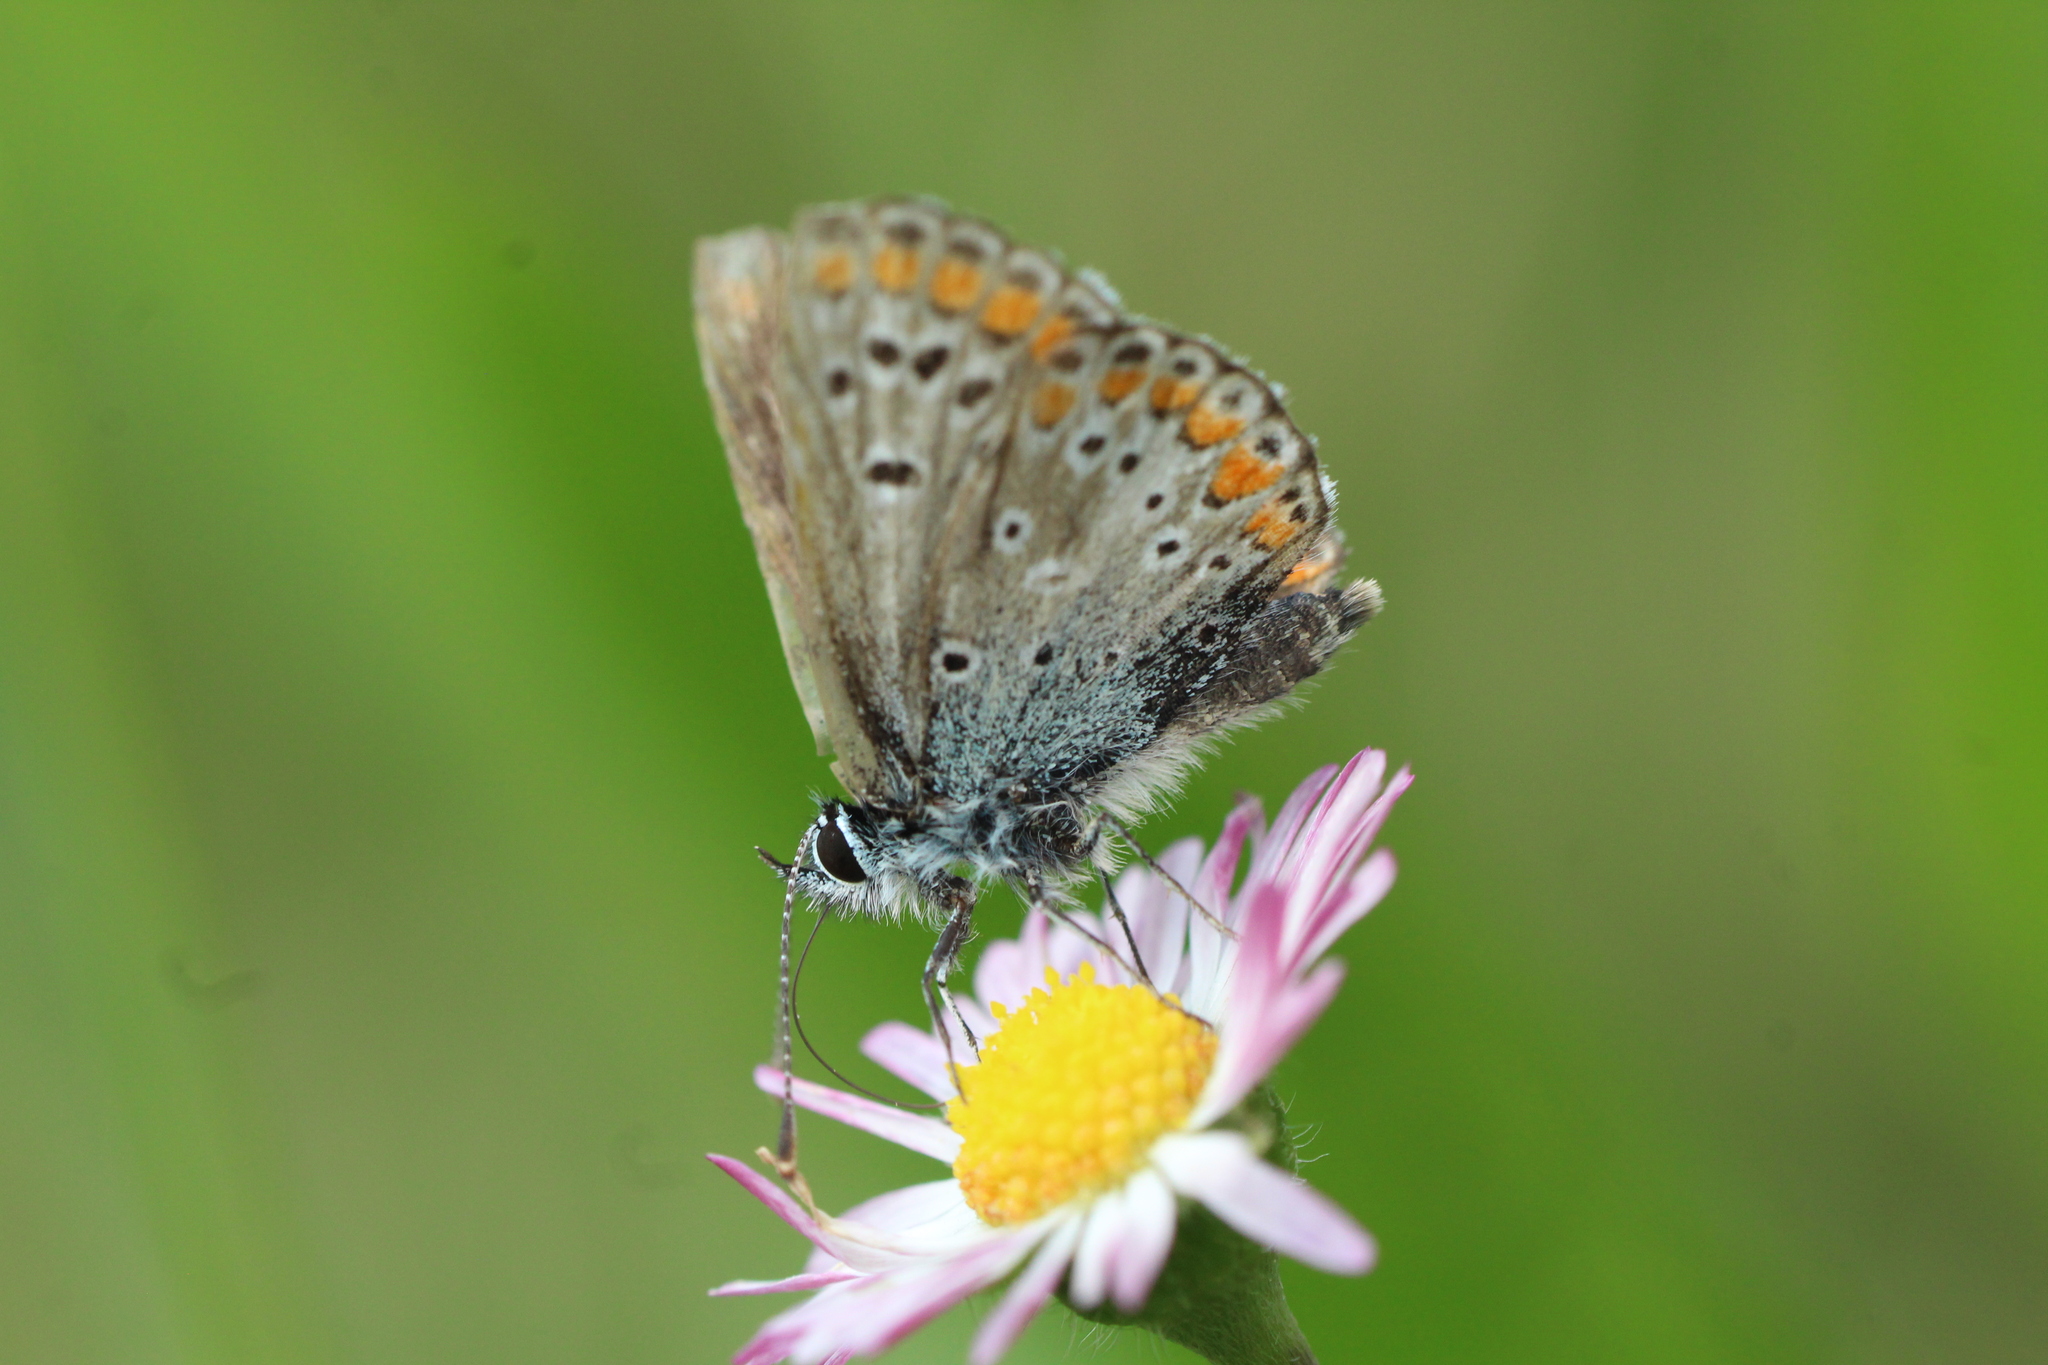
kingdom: Animalia
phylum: Arthropoda
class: Insecta
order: Lepidoptera
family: Lycaenidae
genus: Aricia
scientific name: Aricia agestis
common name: Brown argus
